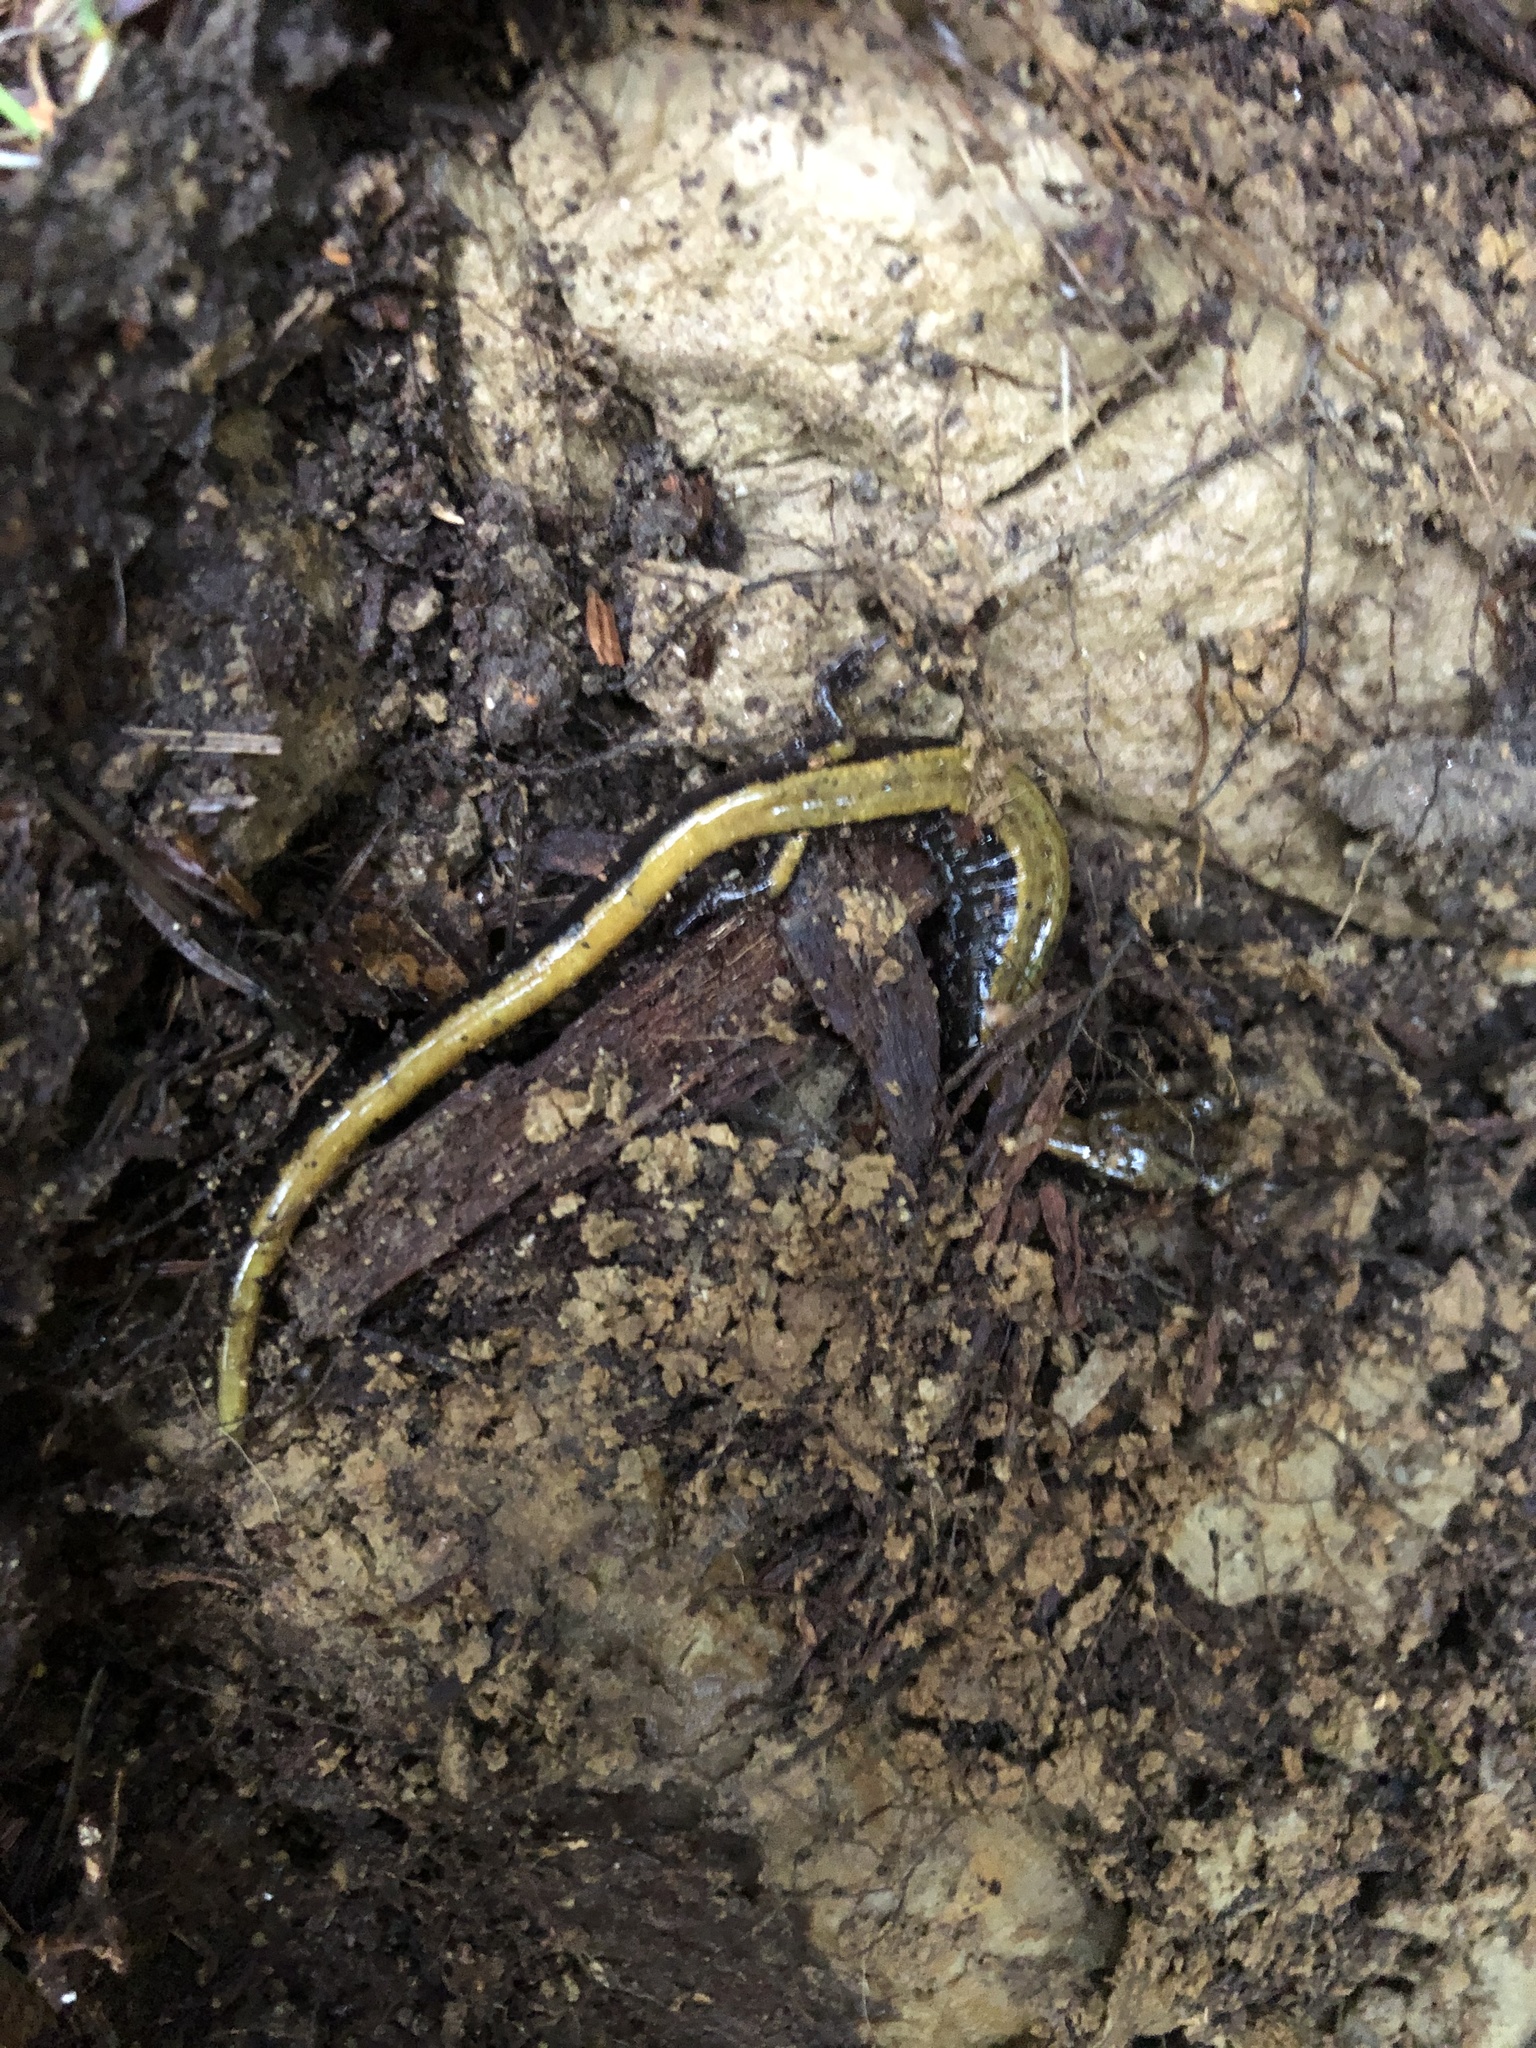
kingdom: Animalia
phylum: Chordata
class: Amphibia
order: Caudata
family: Plethodontidae
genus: Plethodon
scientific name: Plethodon dunni
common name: Dunn's salamander
